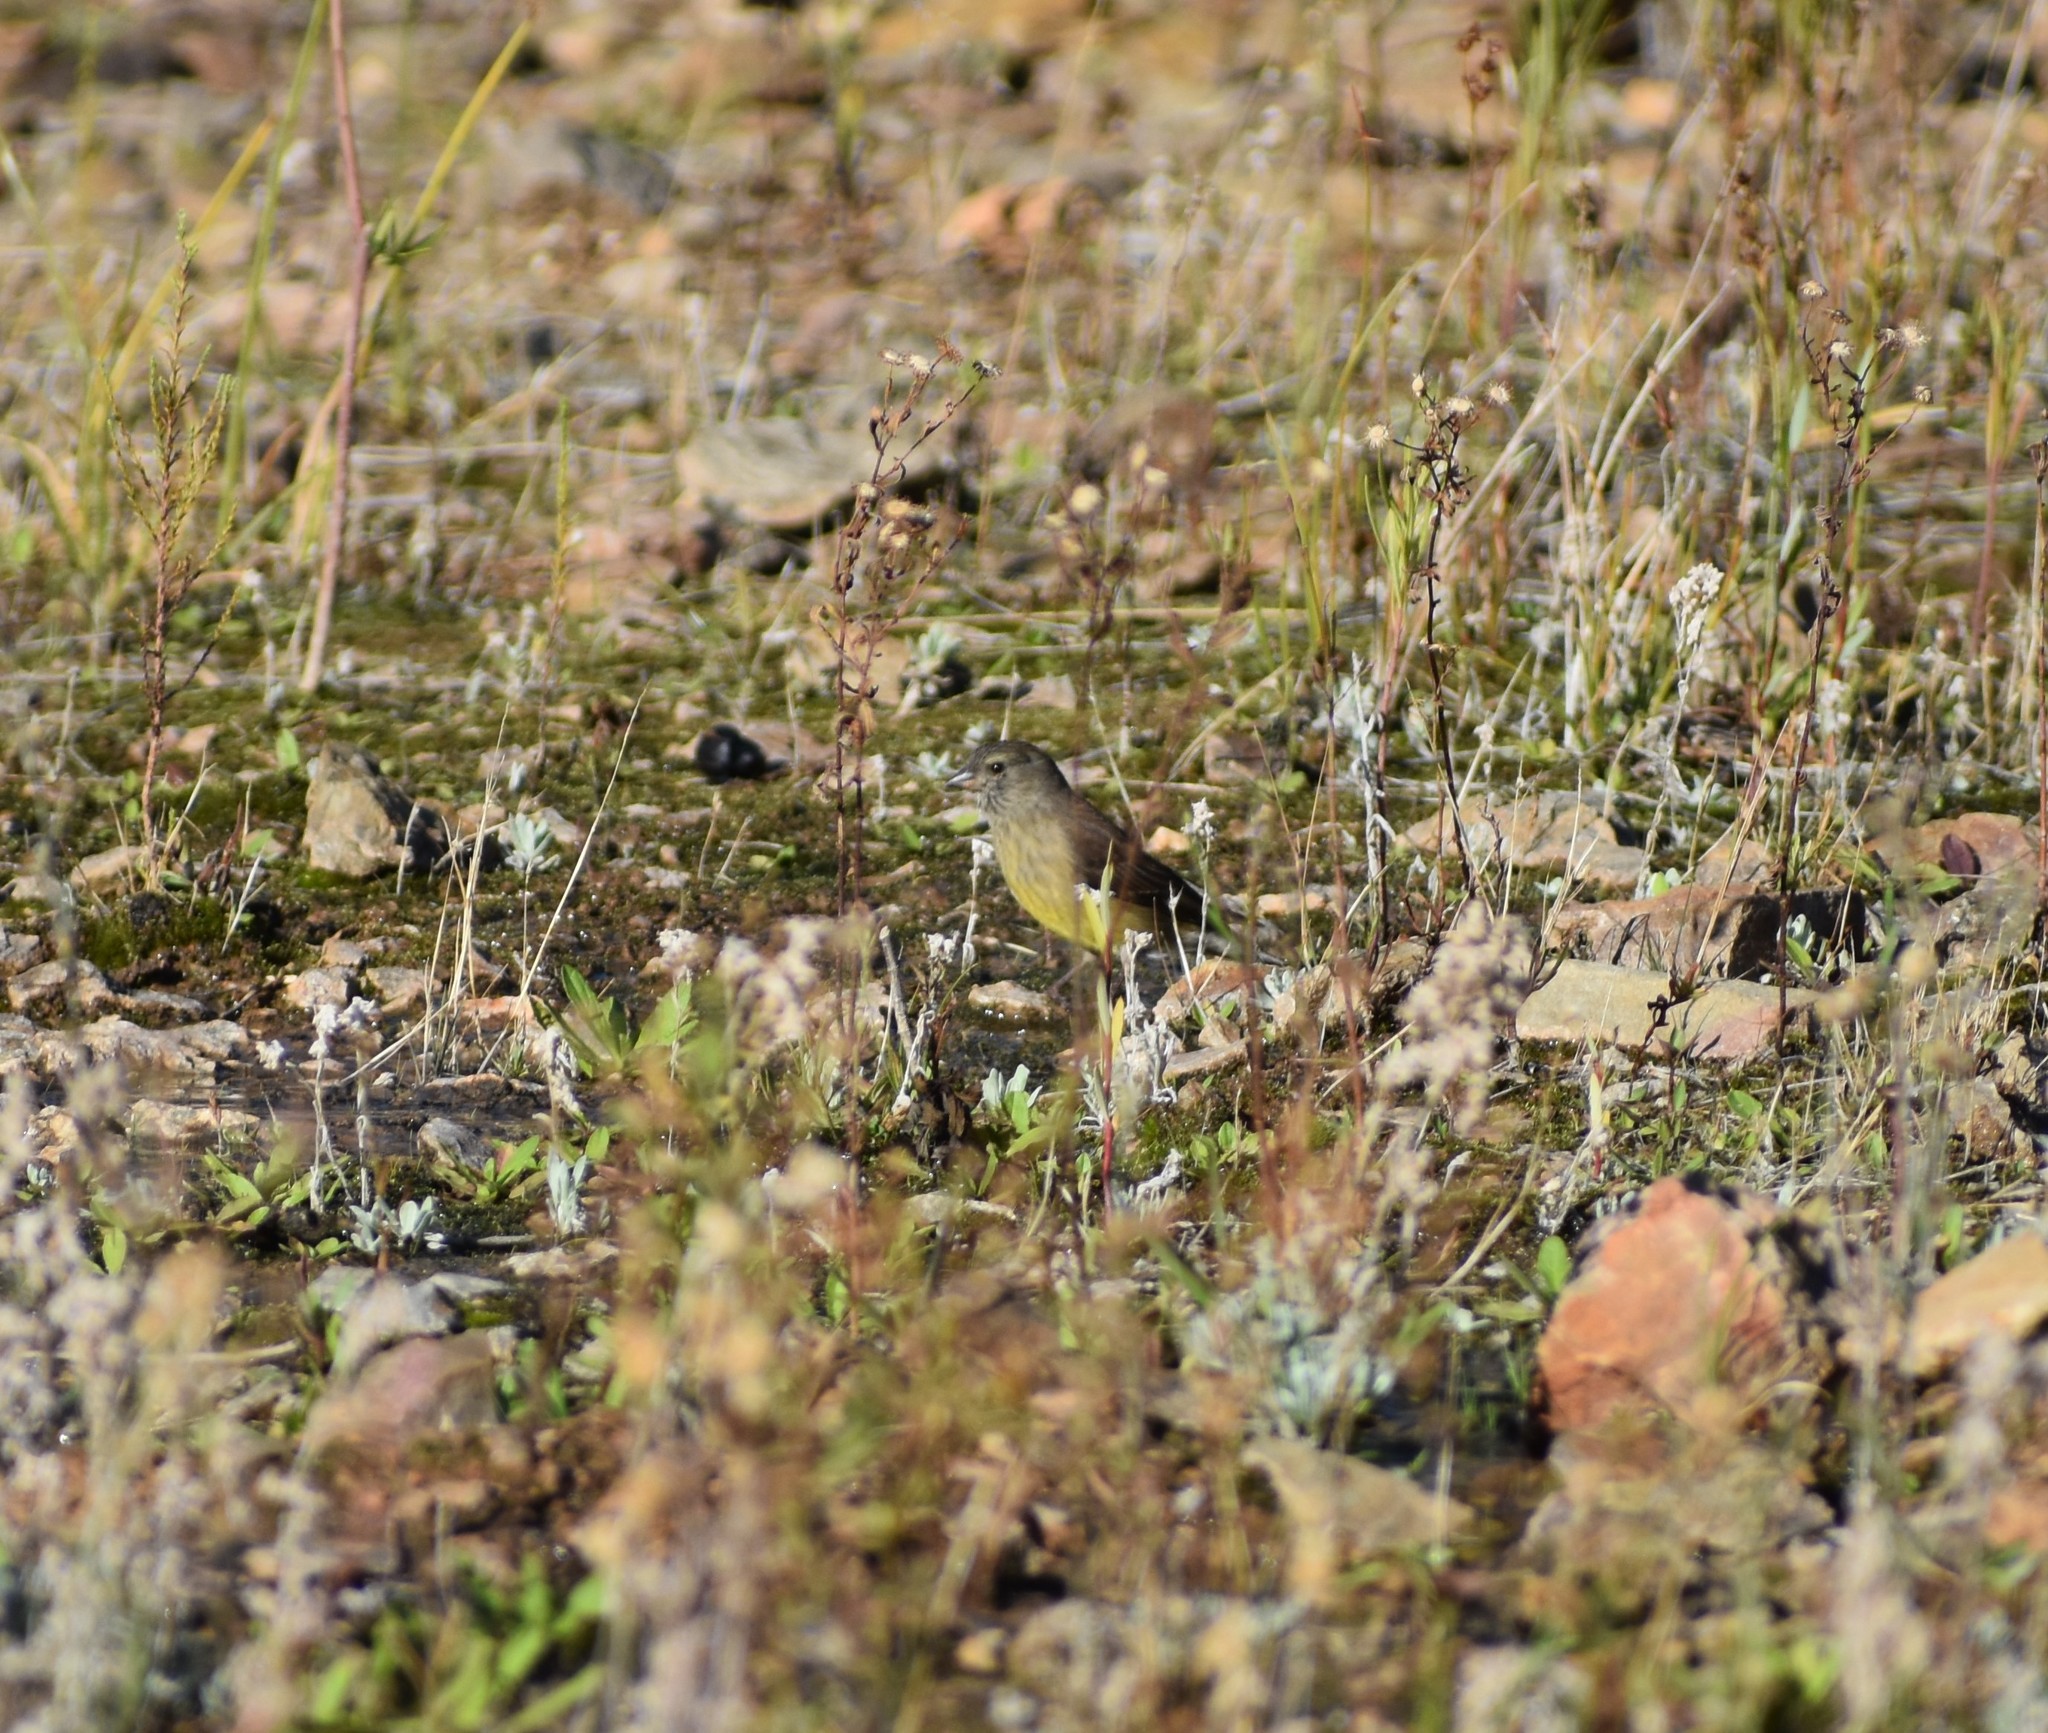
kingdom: Animalia
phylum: Chordata
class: Aves
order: Passeriformes
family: Fringillidae
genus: Crithagra
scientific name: Crithagra totta
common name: Cape siskin
